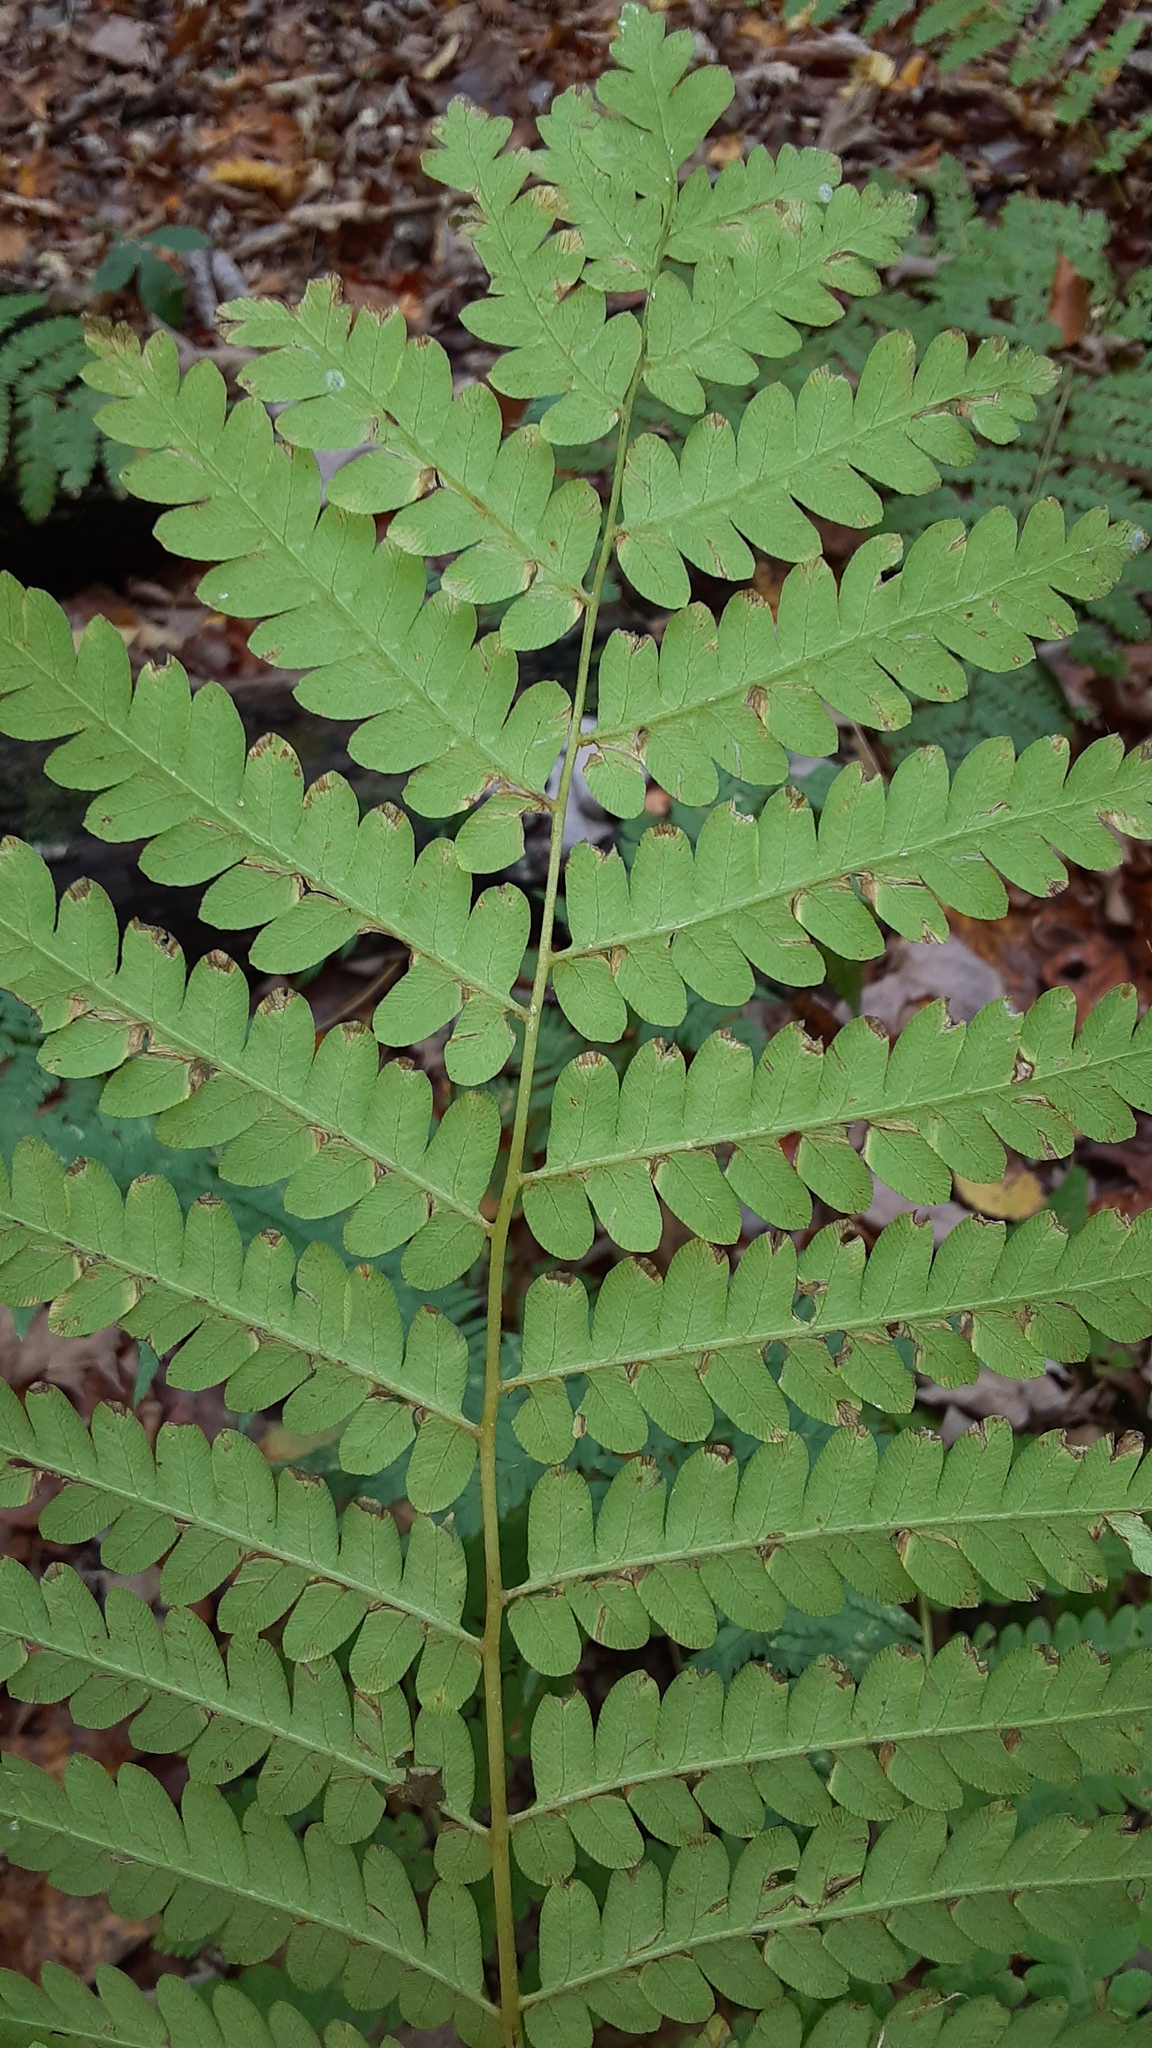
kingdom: Plantae
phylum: Tracheophyta
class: Polypodiopsida
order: Osmundales
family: Osmundaceae
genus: Claytosmunda
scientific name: Claytosmunda claytoniana
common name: Clayton's fern
